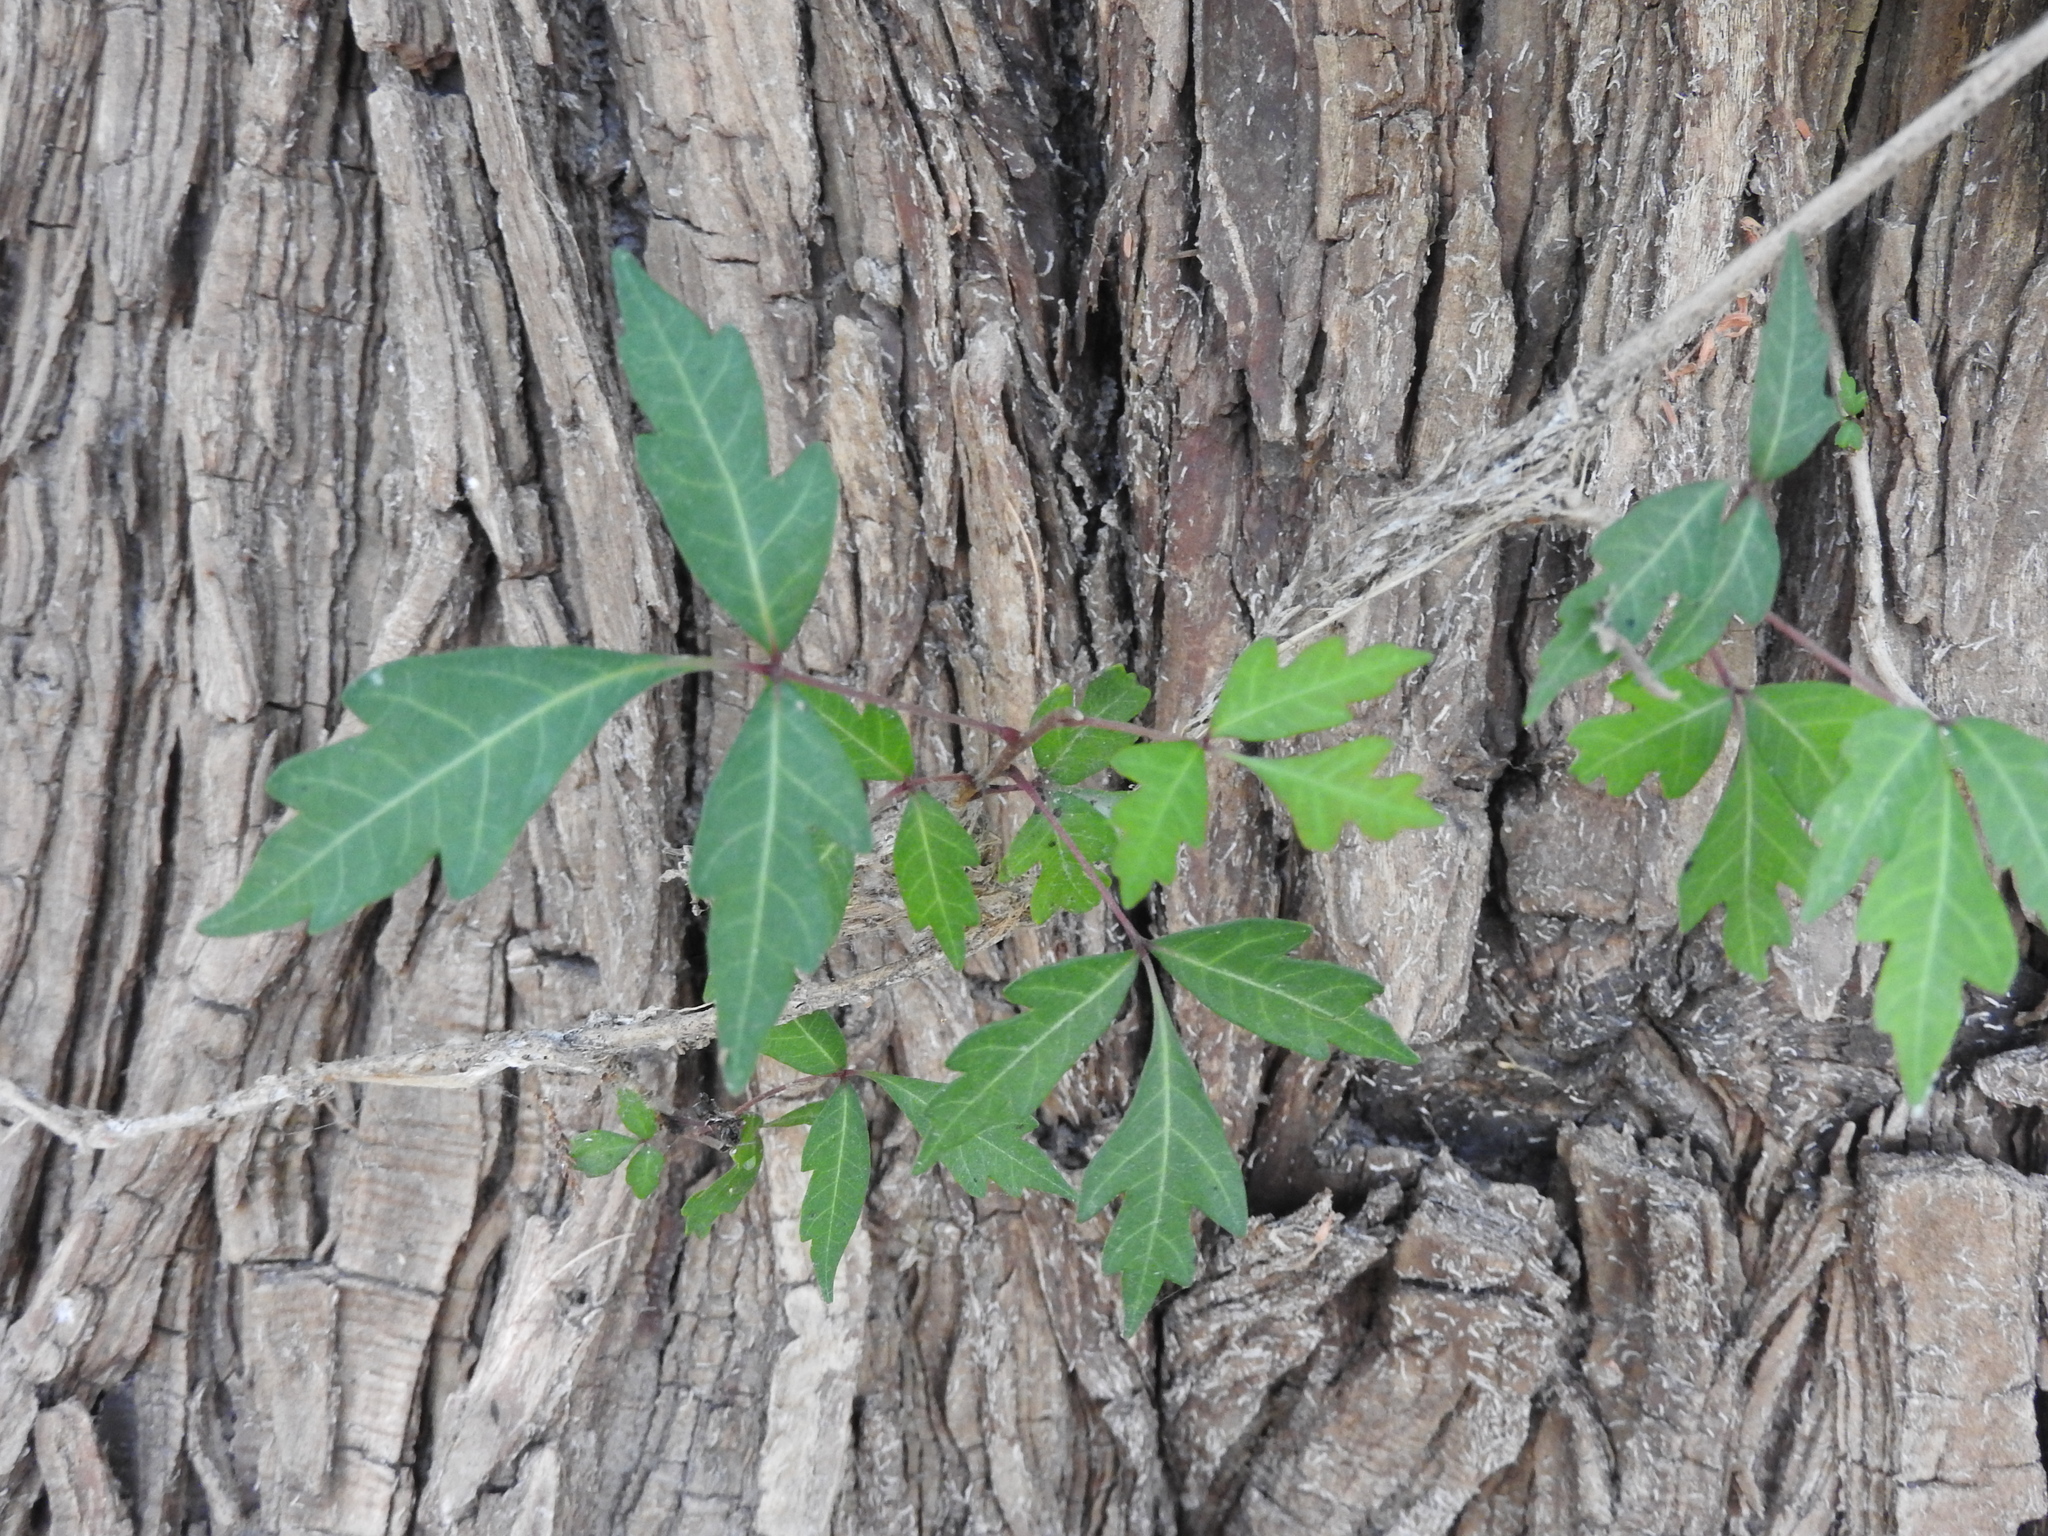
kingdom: Plantae
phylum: Tracheophyta
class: Magnoliopsida
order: Sapindales
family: Anacardiaceae
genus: Toxicodendron
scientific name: Toxicodendron radicans
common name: Poison ivy
